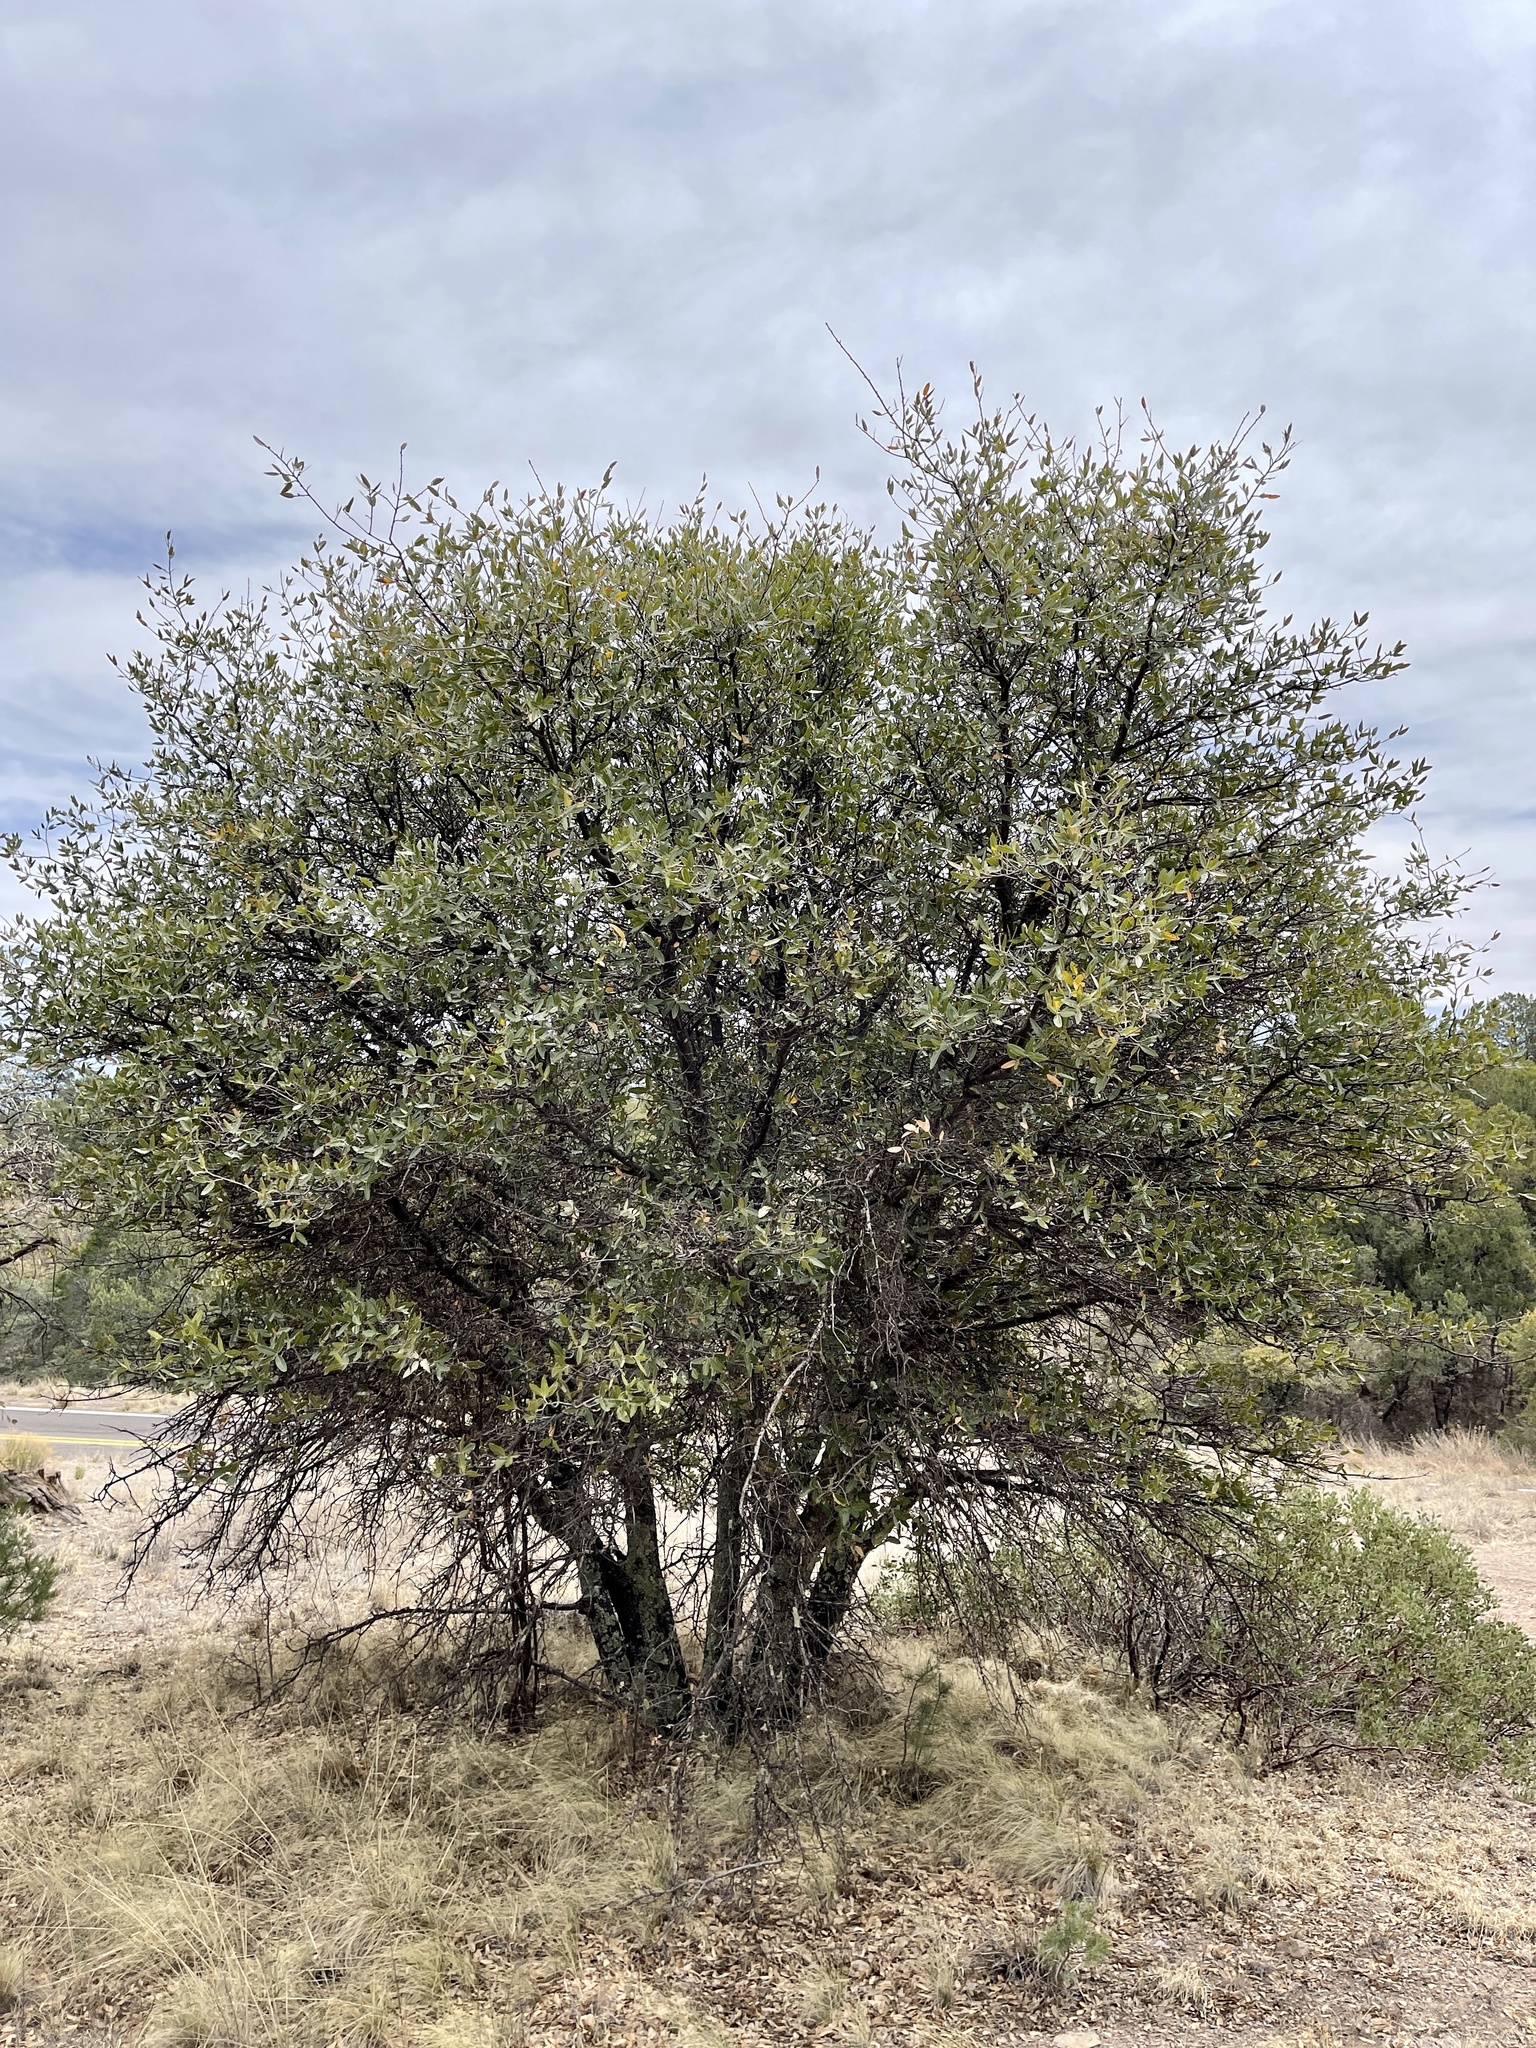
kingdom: Plantae
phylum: Tracheophyta
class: Magnoliopsida
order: Fagales
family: Fagaceae
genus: Quercus
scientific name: Quercus grisea
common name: Gray oak
